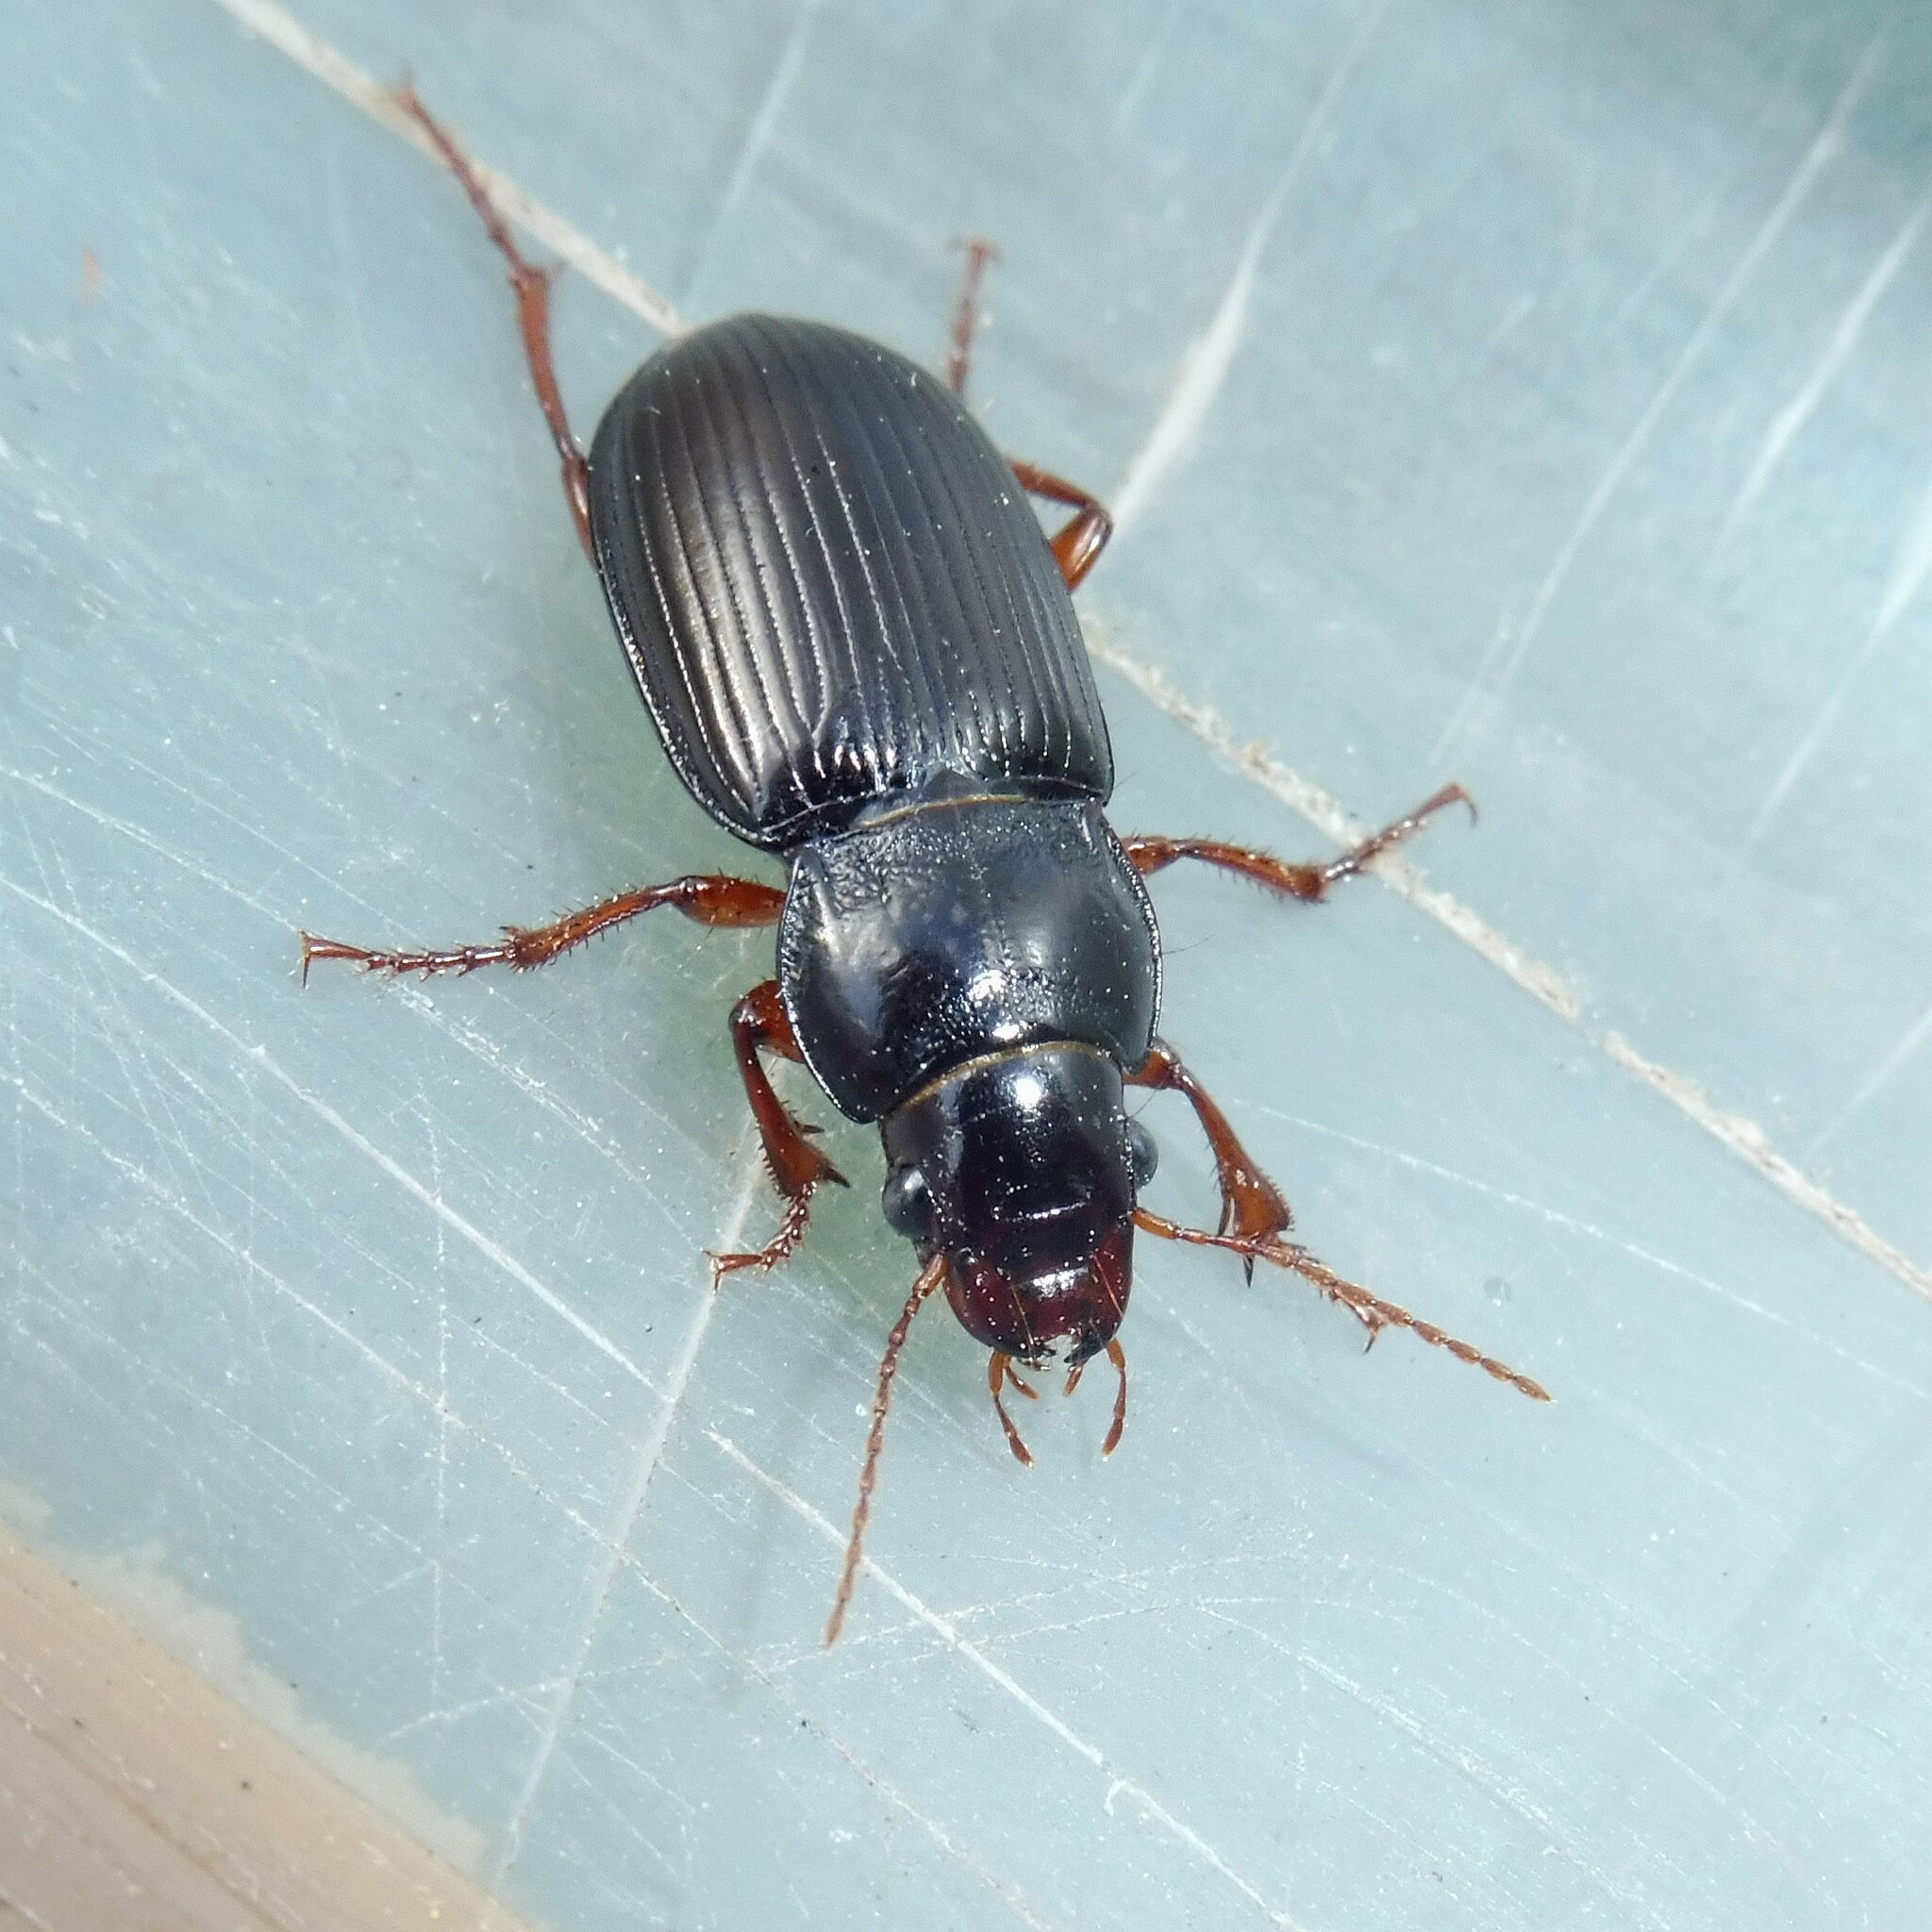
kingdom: Animalia
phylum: Arthropoda
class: Insecta
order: Coleoptera
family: Carabidae
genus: Amara
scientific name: Amara aulica
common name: Princely harp ground beetle
